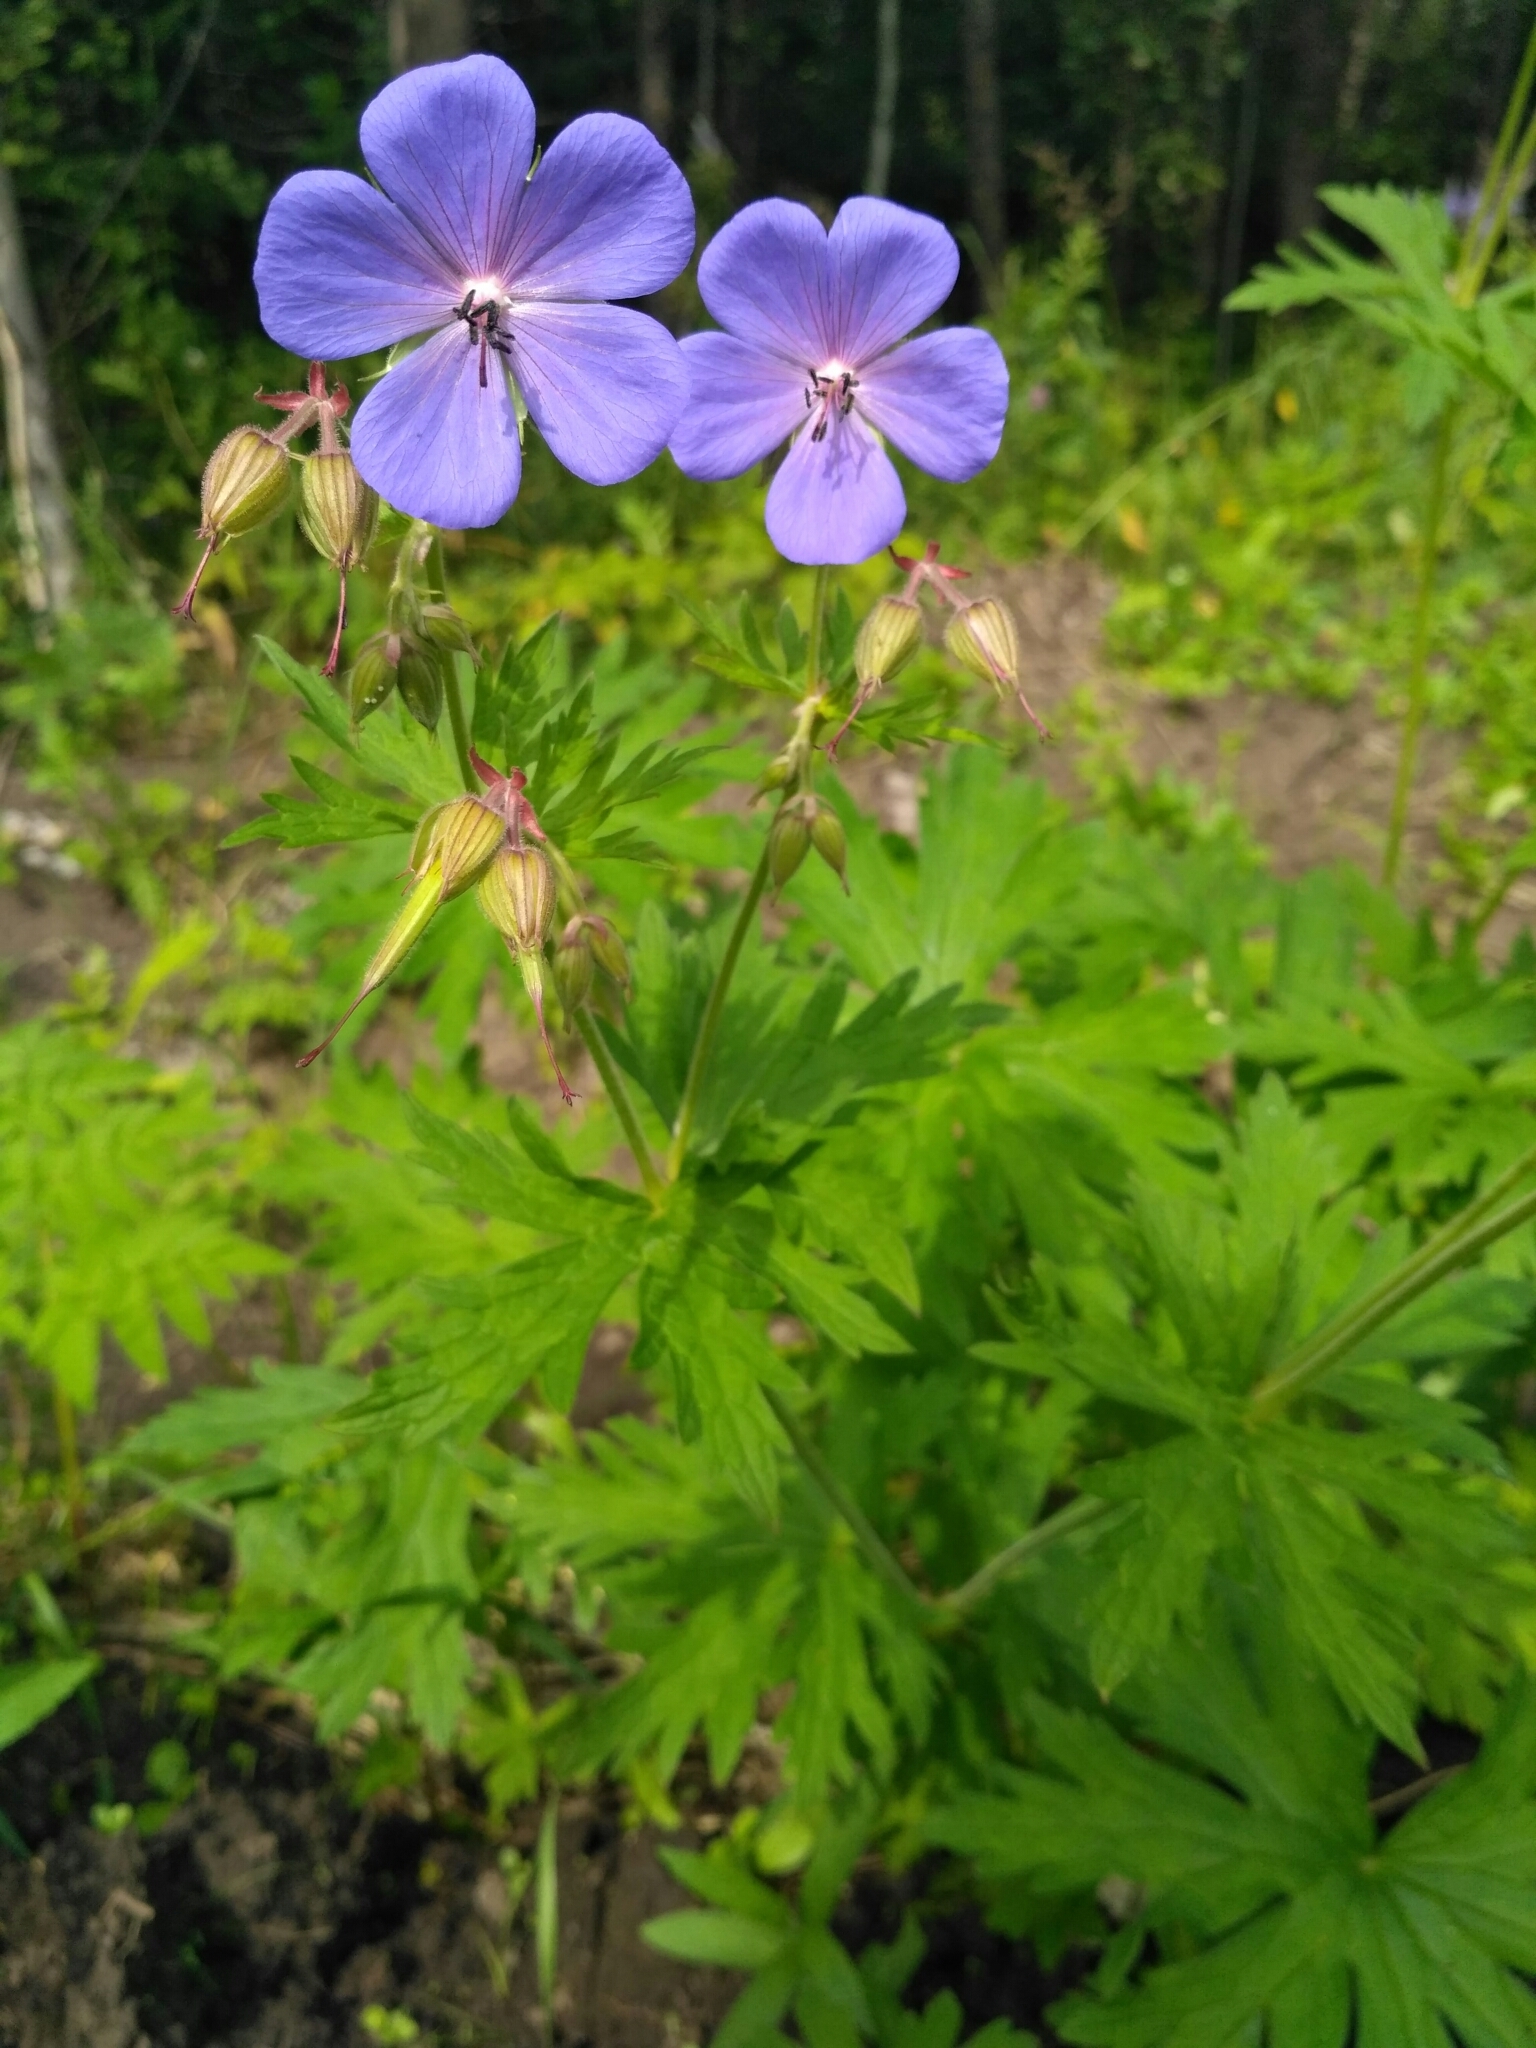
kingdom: Plantae
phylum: Tracheophyta
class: Magnoliopsida
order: Geraniales
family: Geraniaceae
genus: Geranium
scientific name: Geranium pratense
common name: Meadow crane's-bill
